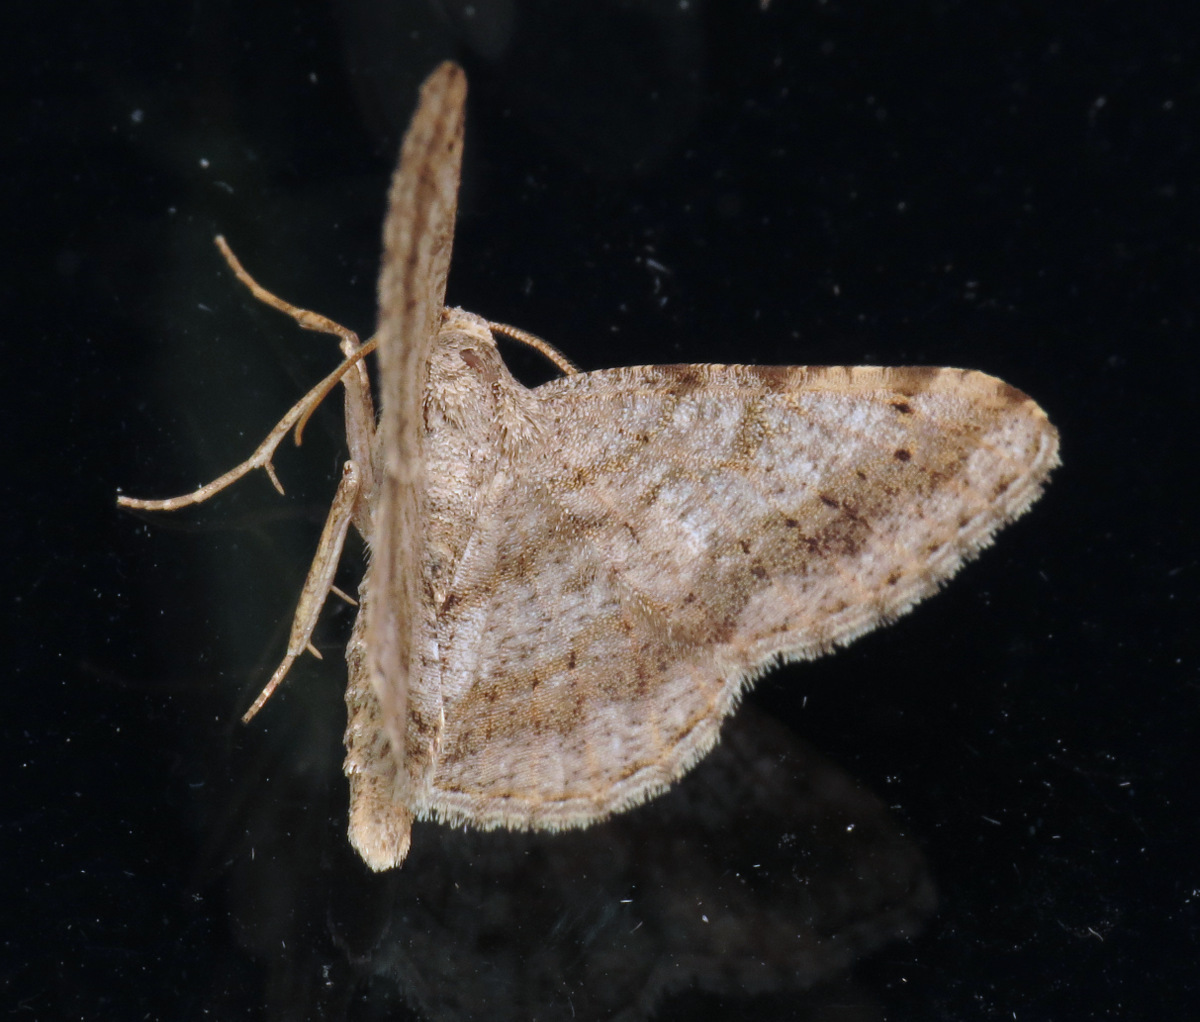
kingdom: Animalia
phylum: Arthropoda
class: Insecta
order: Lepidoptera
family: Geometridae
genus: Digrammia
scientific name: Digrammia ocellinata
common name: Faint-spotted angle
